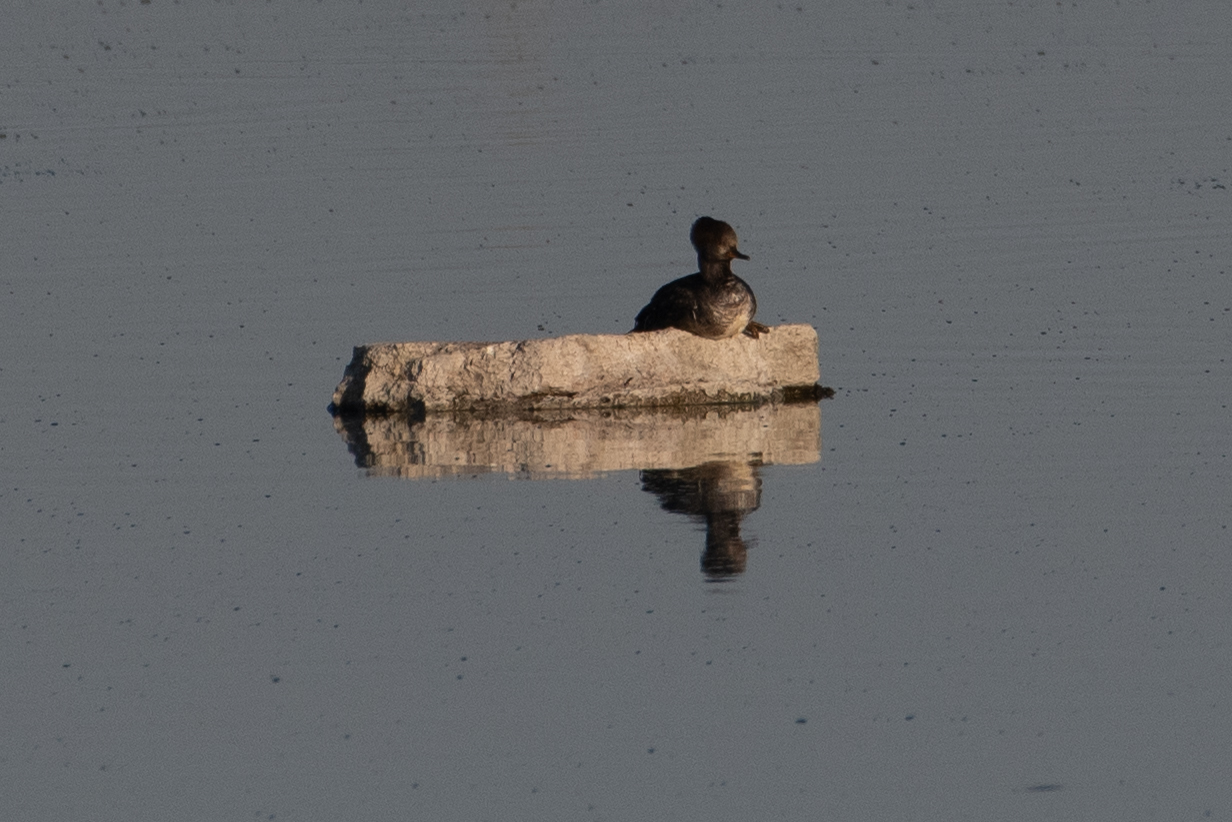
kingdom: Animalia
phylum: Chordata
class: Aves
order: Anseriformes
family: Anatidae
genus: Lophodytes
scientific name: Lophodytes cucullatus
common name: Hooded merganser
